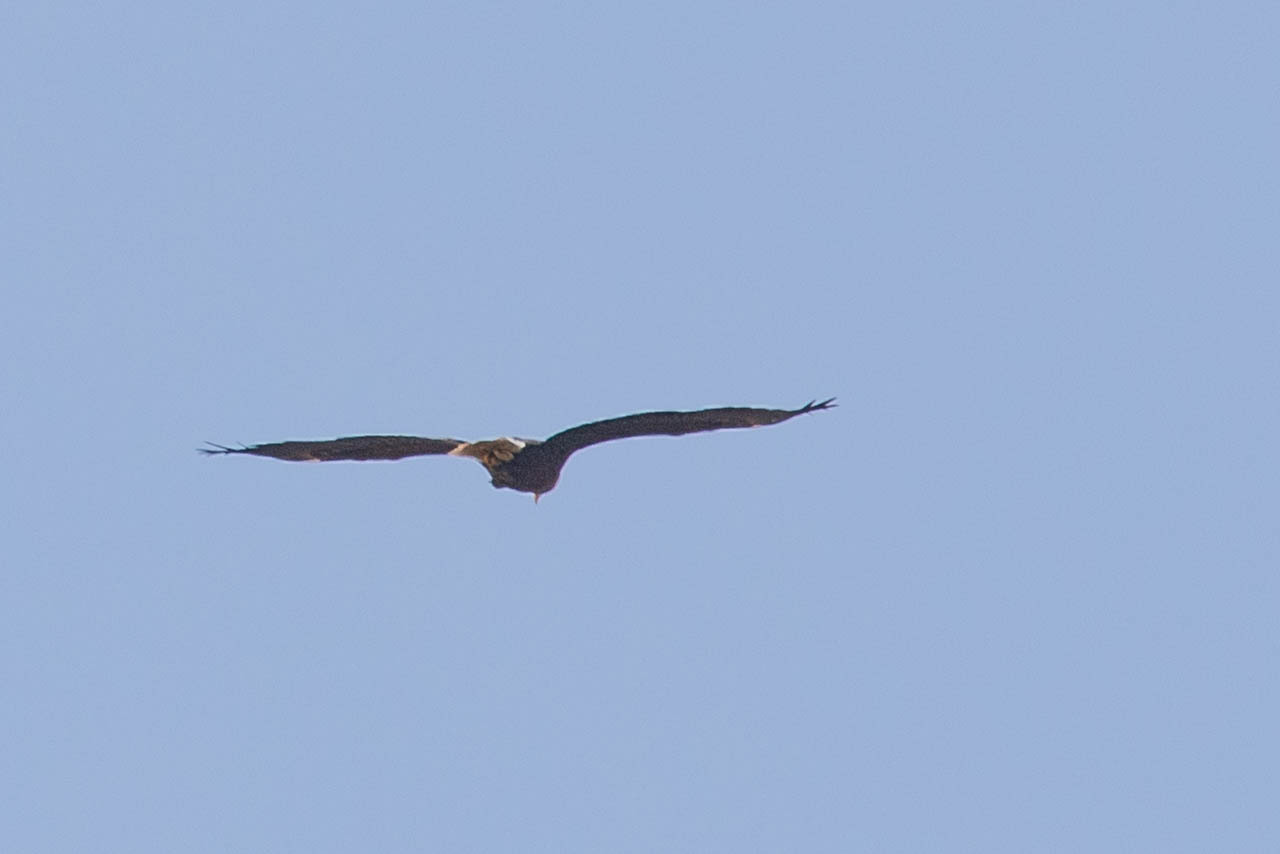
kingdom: Animalia
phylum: Chordata
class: Aves
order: Accipitriformes
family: Accipitridae
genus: Haliaeetus
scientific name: Haliaeetus leucocephalus
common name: Bald eagle
